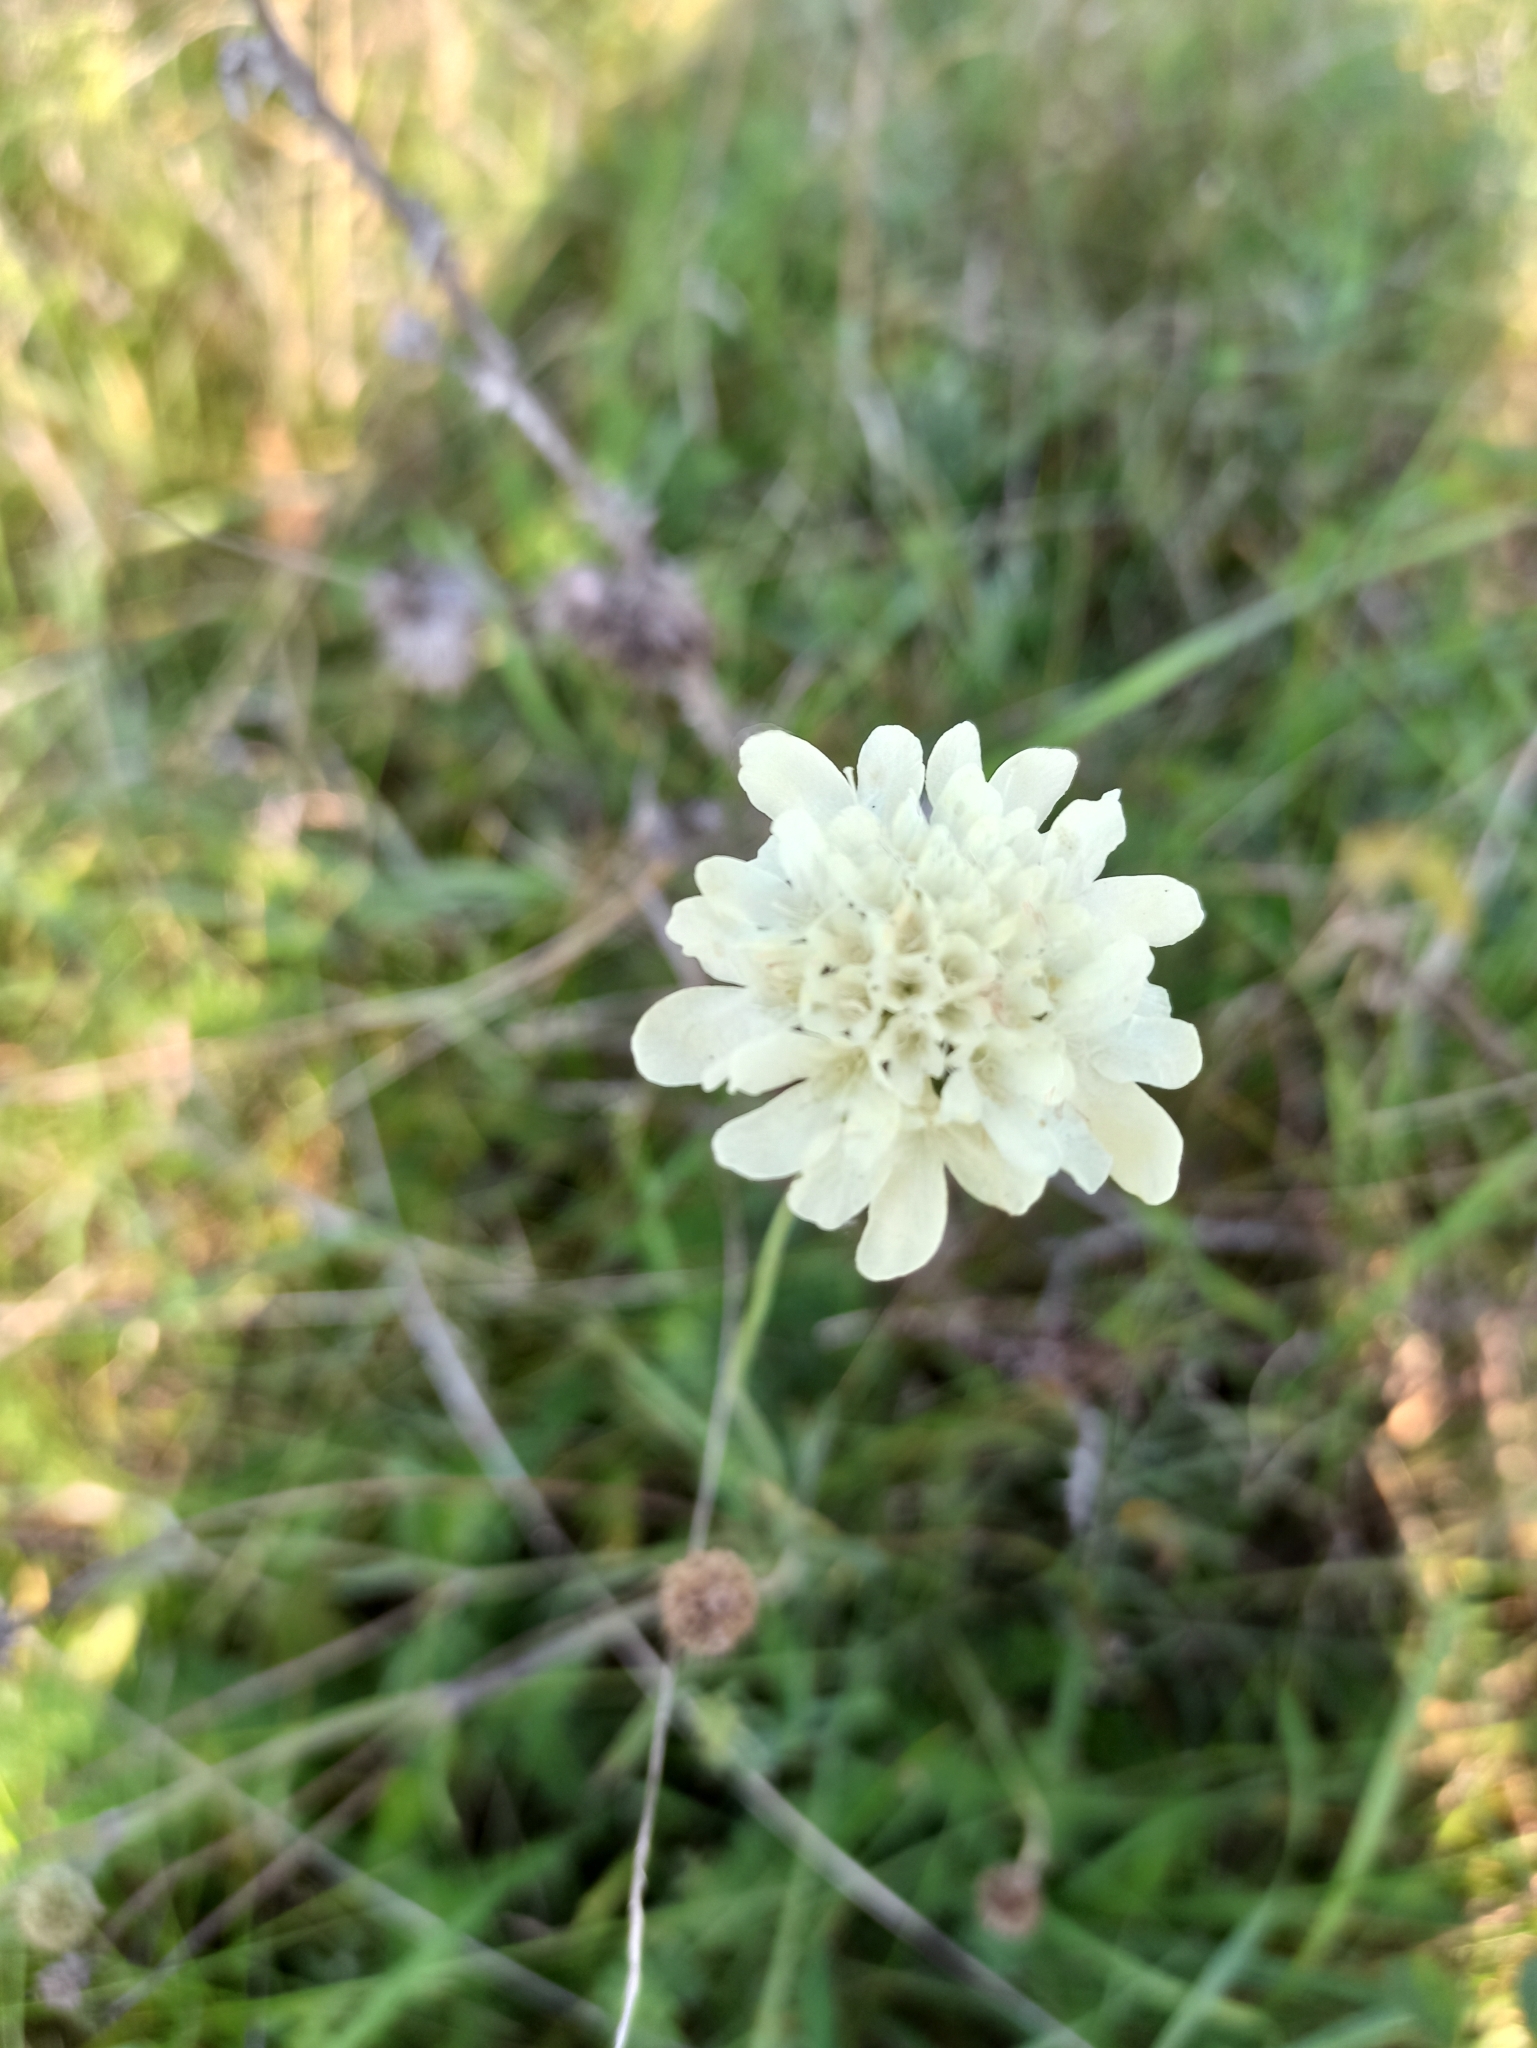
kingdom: Plantae
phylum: Tracheophyta
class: Magnoliopsida
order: Dipsacales
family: Caprifoliaceae
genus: Scabiosa
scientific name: Scabiosa ochroleuca
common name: Cream pincushions
